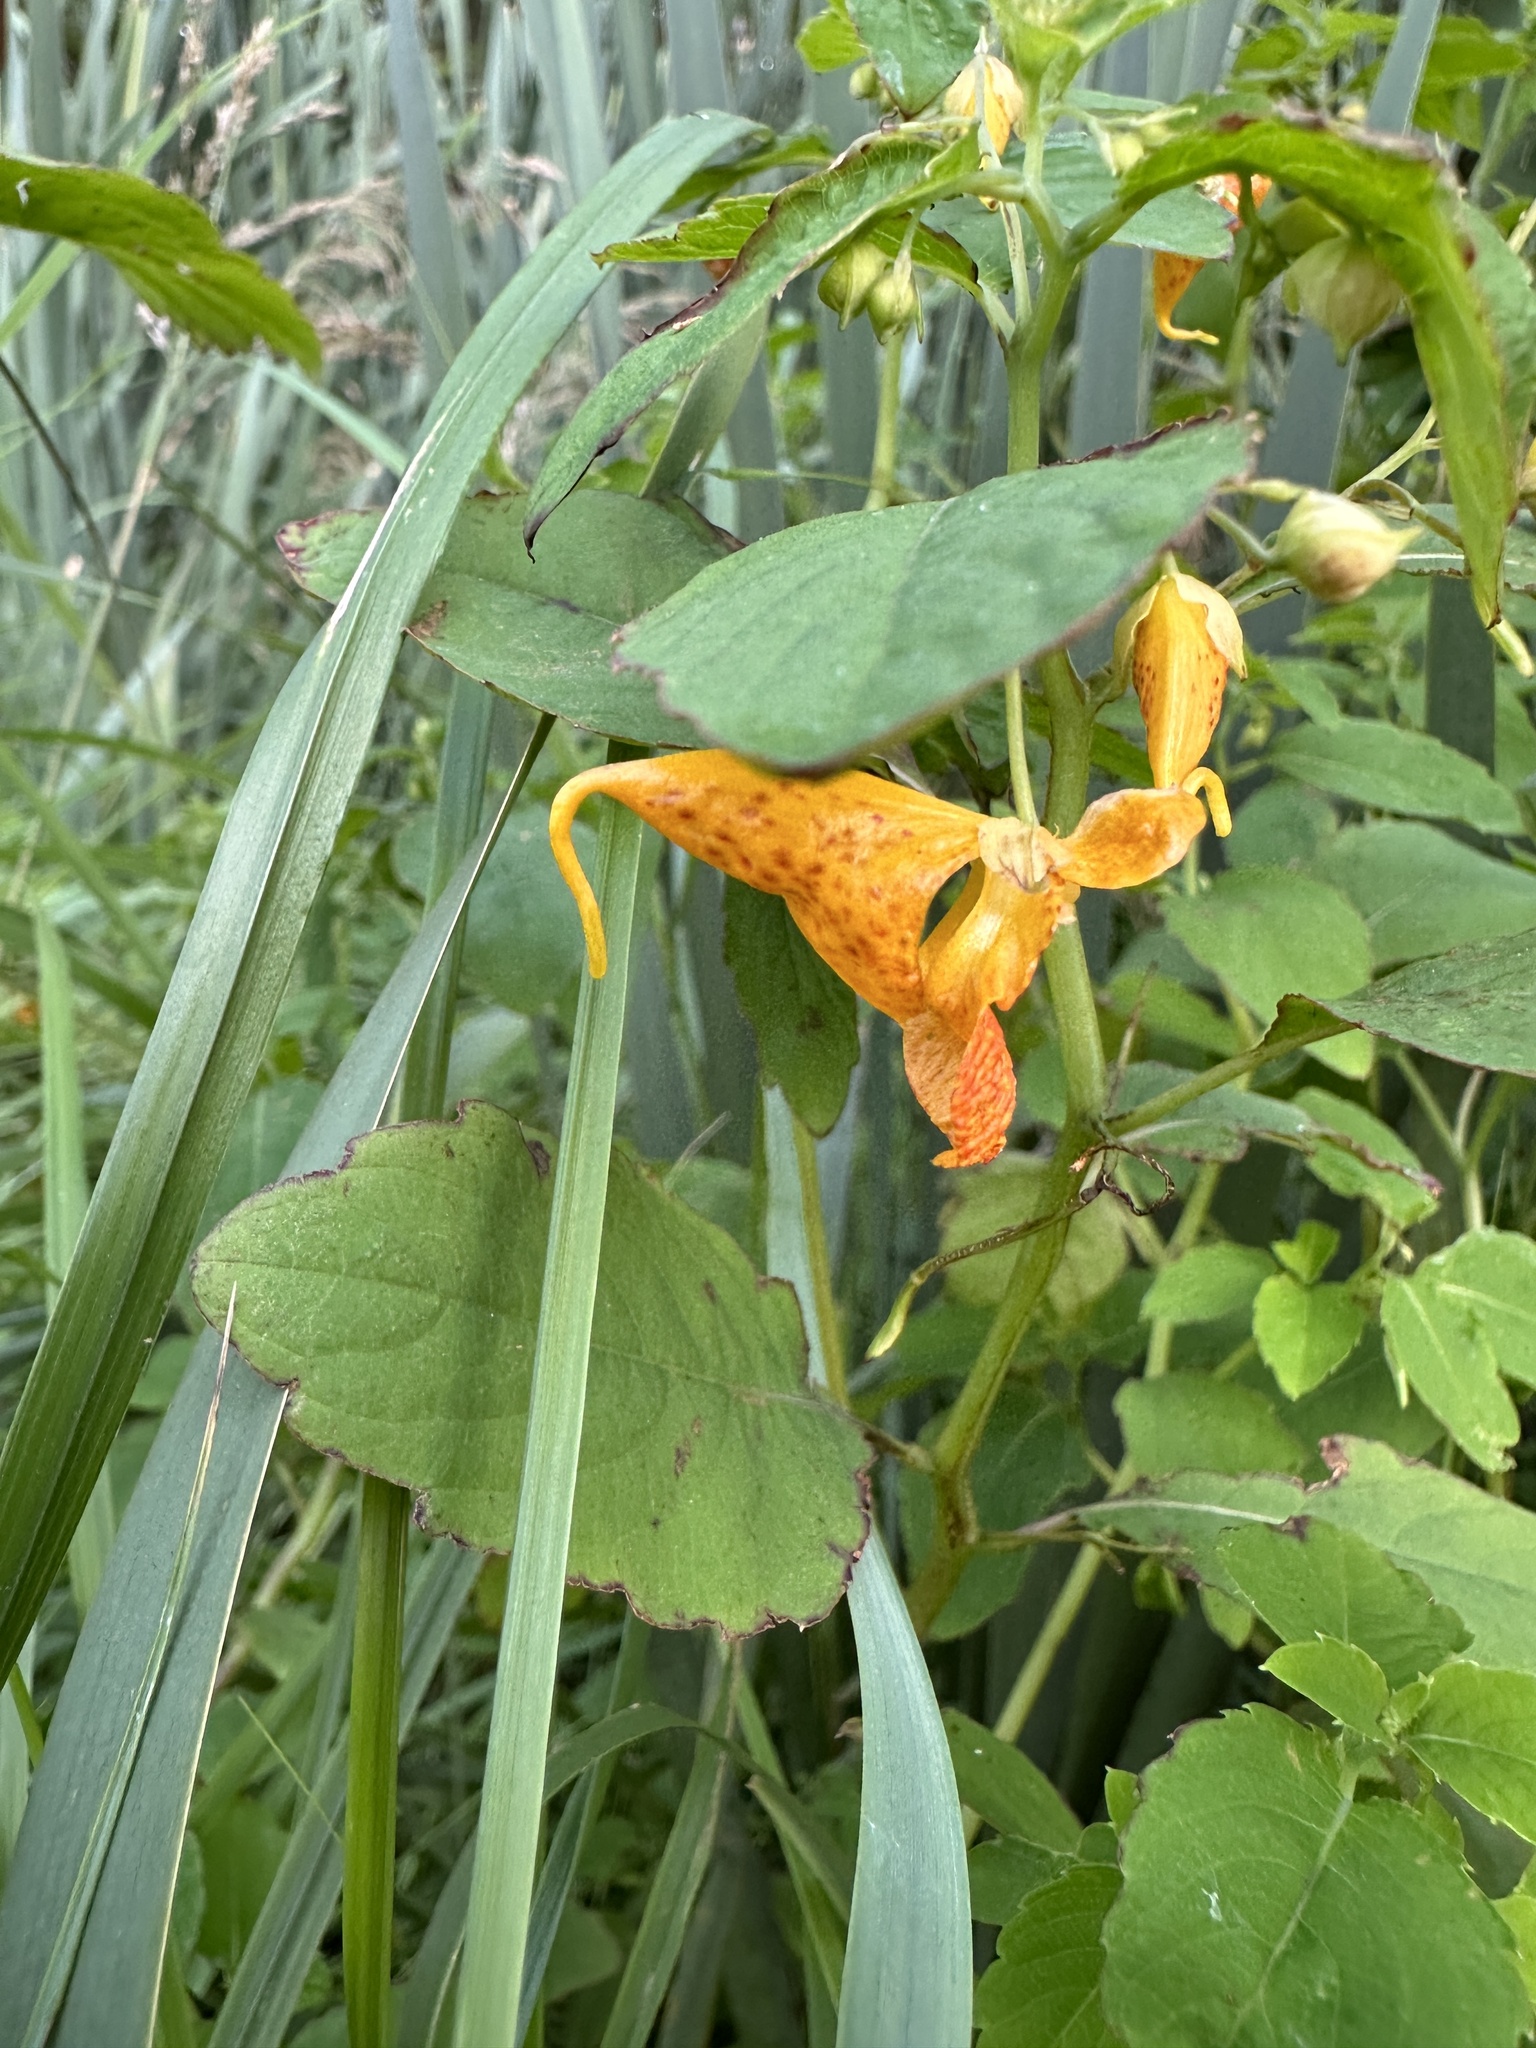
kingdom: Plantae
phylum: Tracheophyta
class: Magnoliopsida
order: Ericales
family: Balsaminaceae
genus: Impatiens
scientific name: Impatiens capensis
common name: Orange balsam
